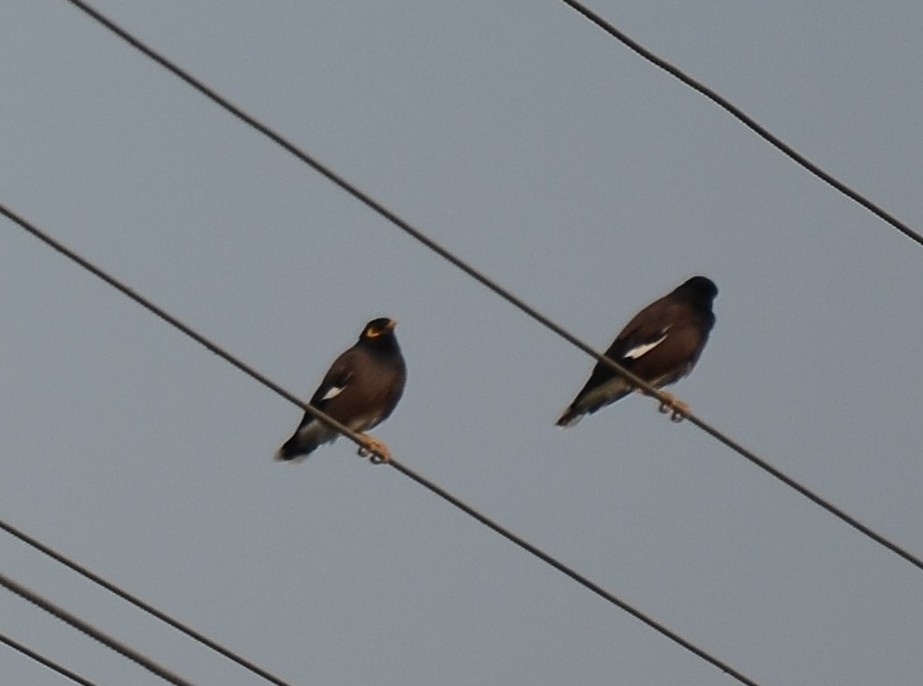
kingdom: Animalia
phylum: Chordata
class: Aves
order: Passeriformes
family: Sturnidae
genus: Acridotheres
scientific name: Acridotheres tristis
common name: Common myna
